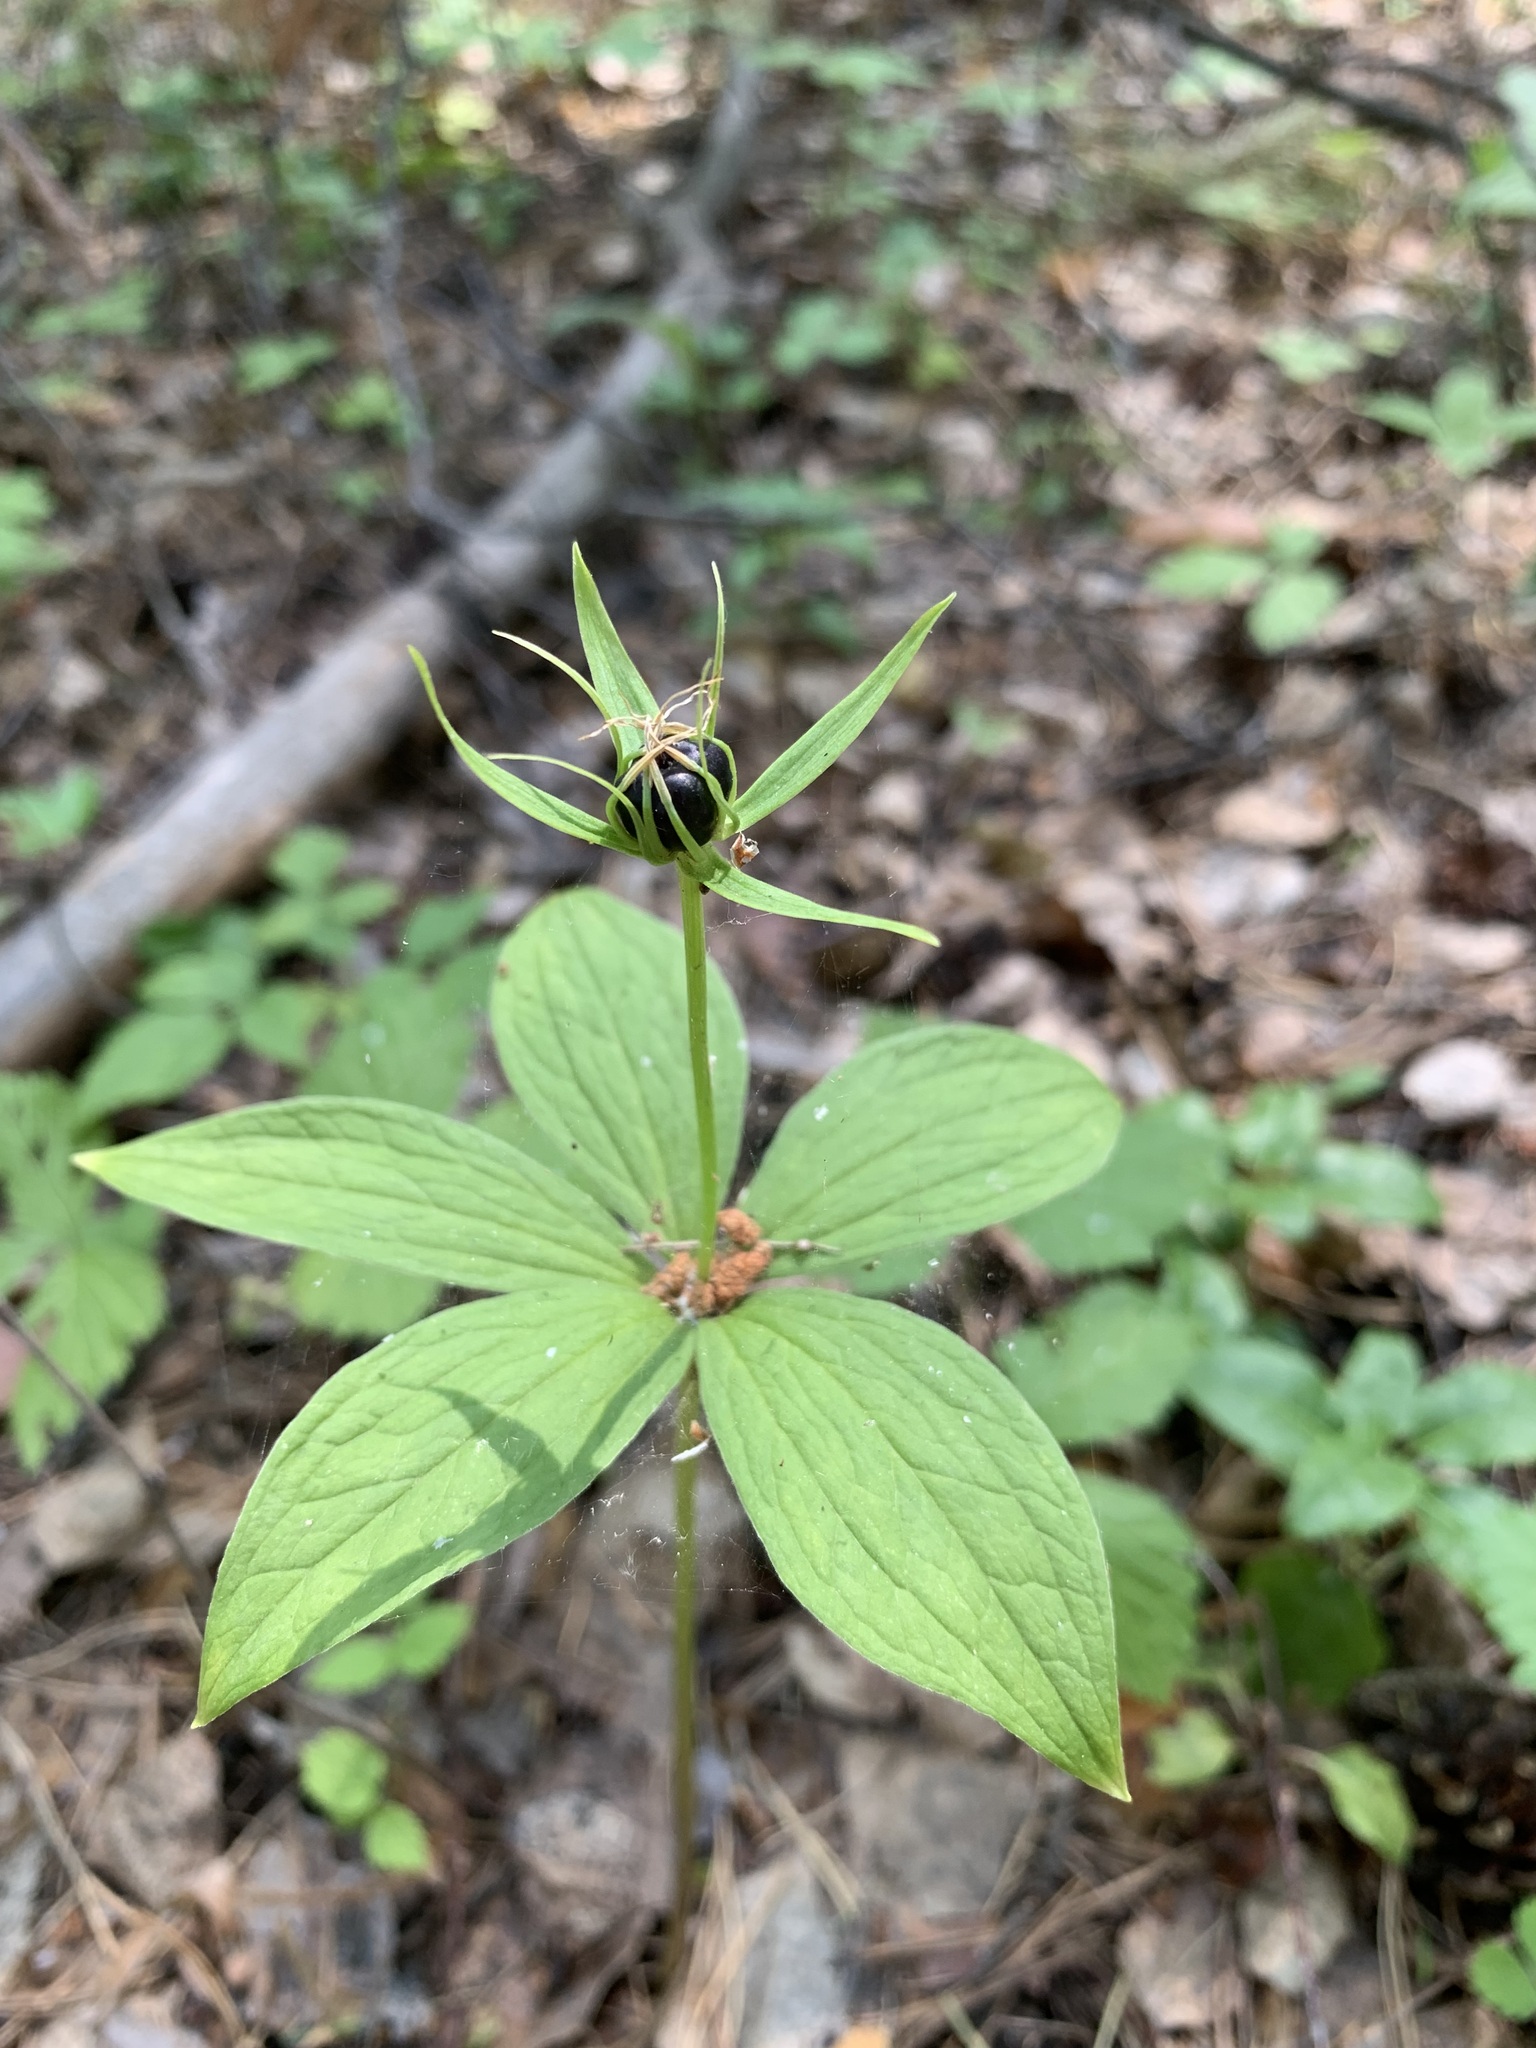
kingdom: Plantae
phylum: Tracheophyta
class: Liliopsida
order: Liliales
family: Melanthiaceae
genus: Paris
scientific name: Paris quadrifolia
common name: Herb-paris
